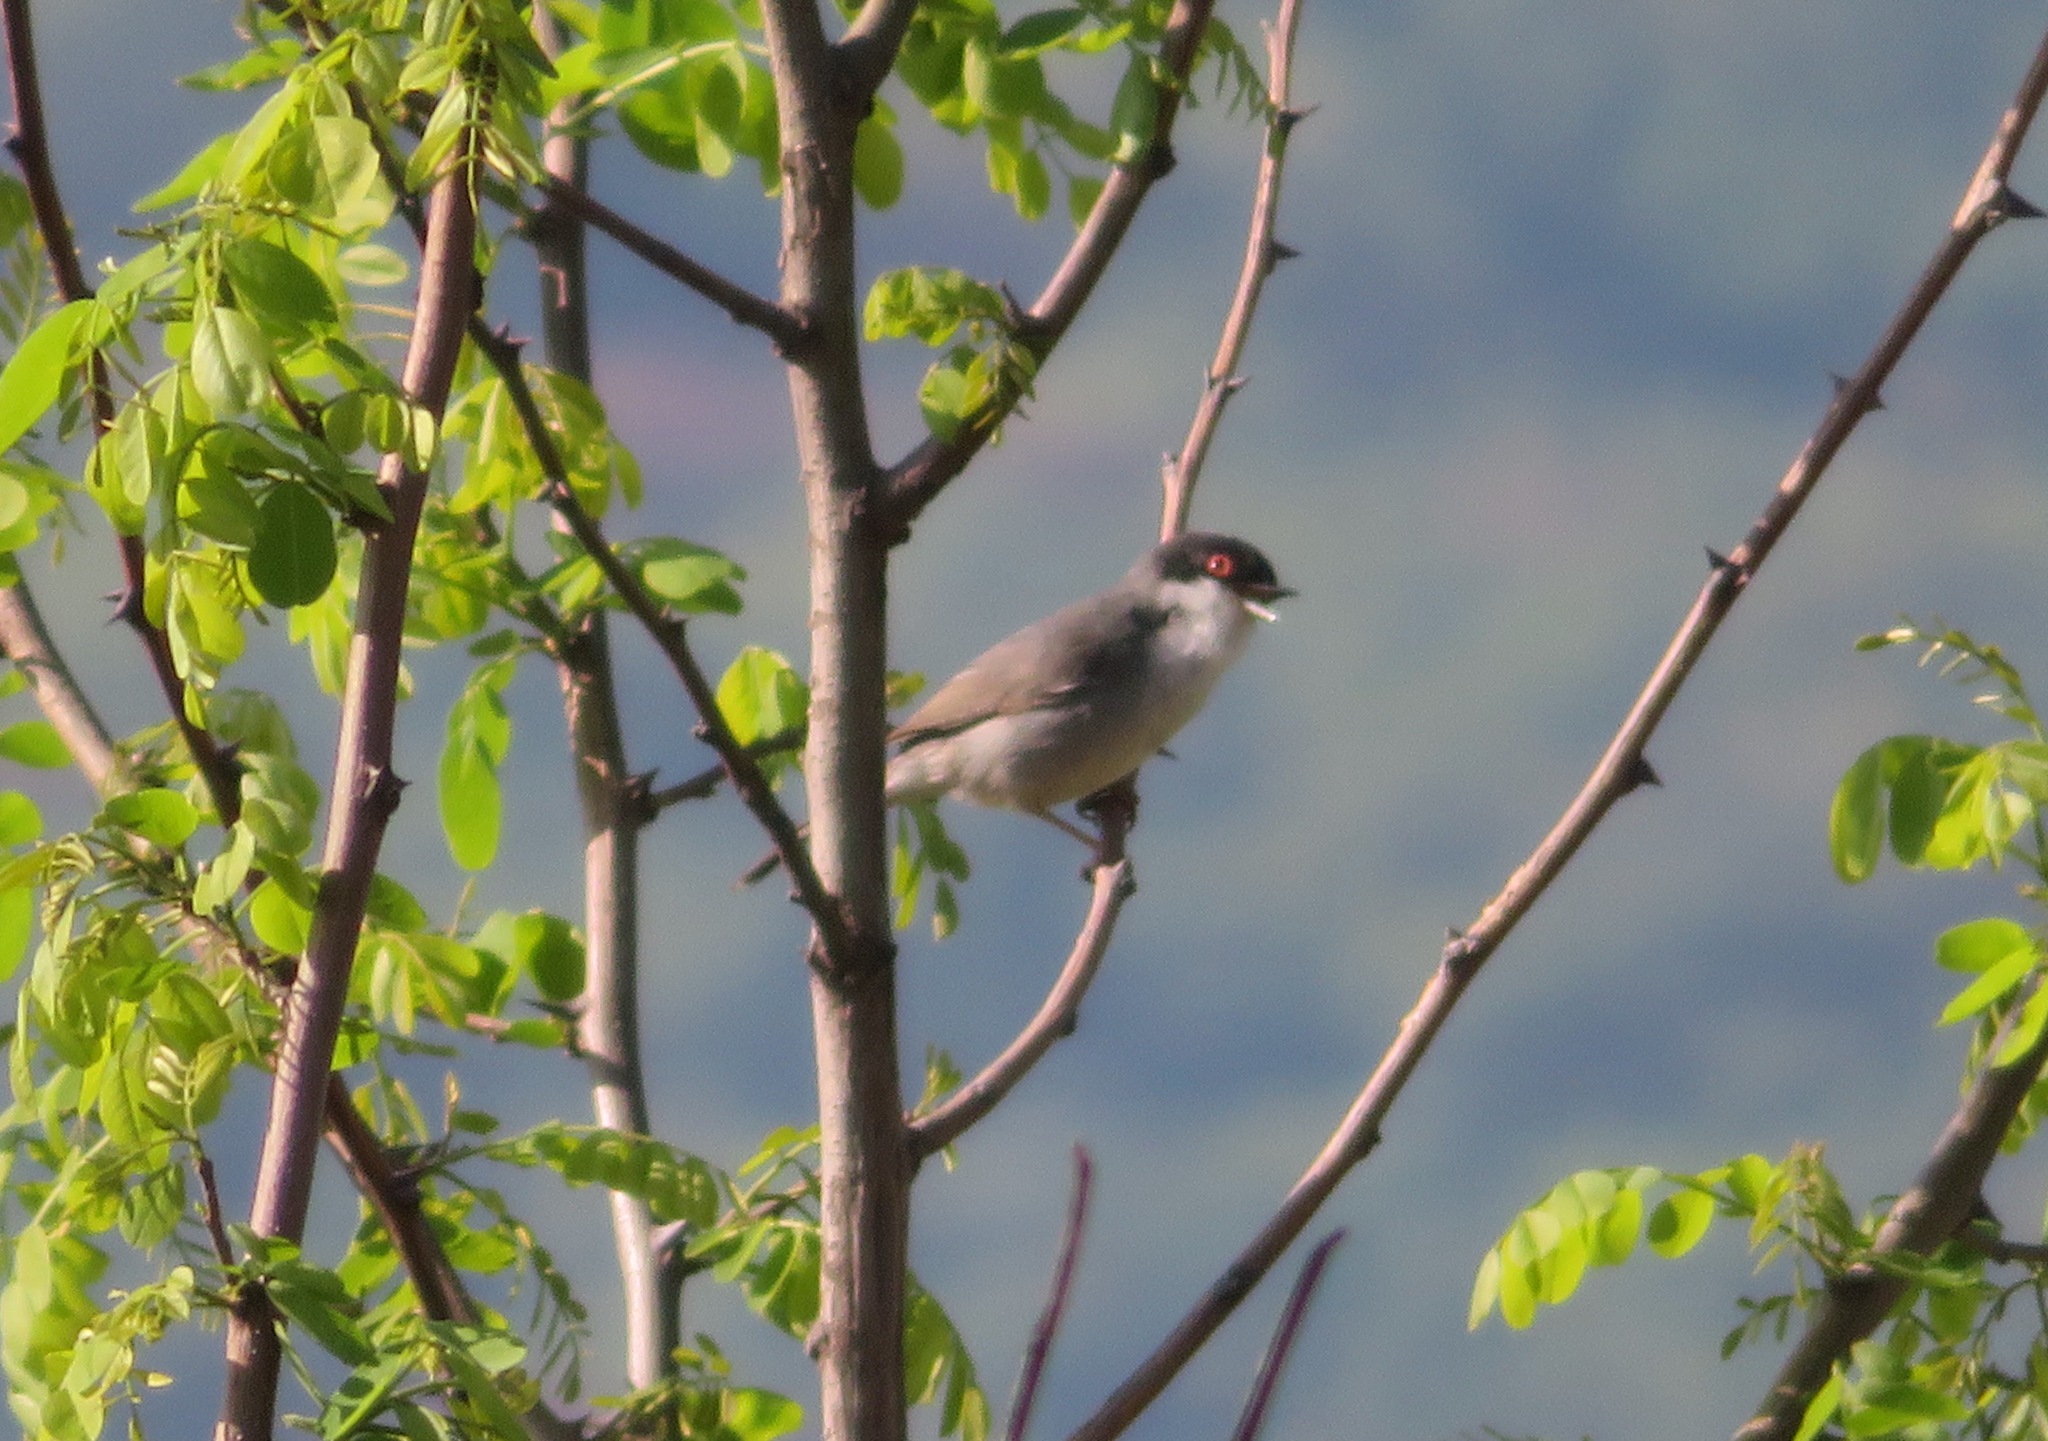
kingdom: Animalia
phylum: Chordata
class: Aves
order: Passeriformes
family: Sylviidae
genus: Curruca
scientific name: Curruca melanocephala
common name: Sardinian warbler
